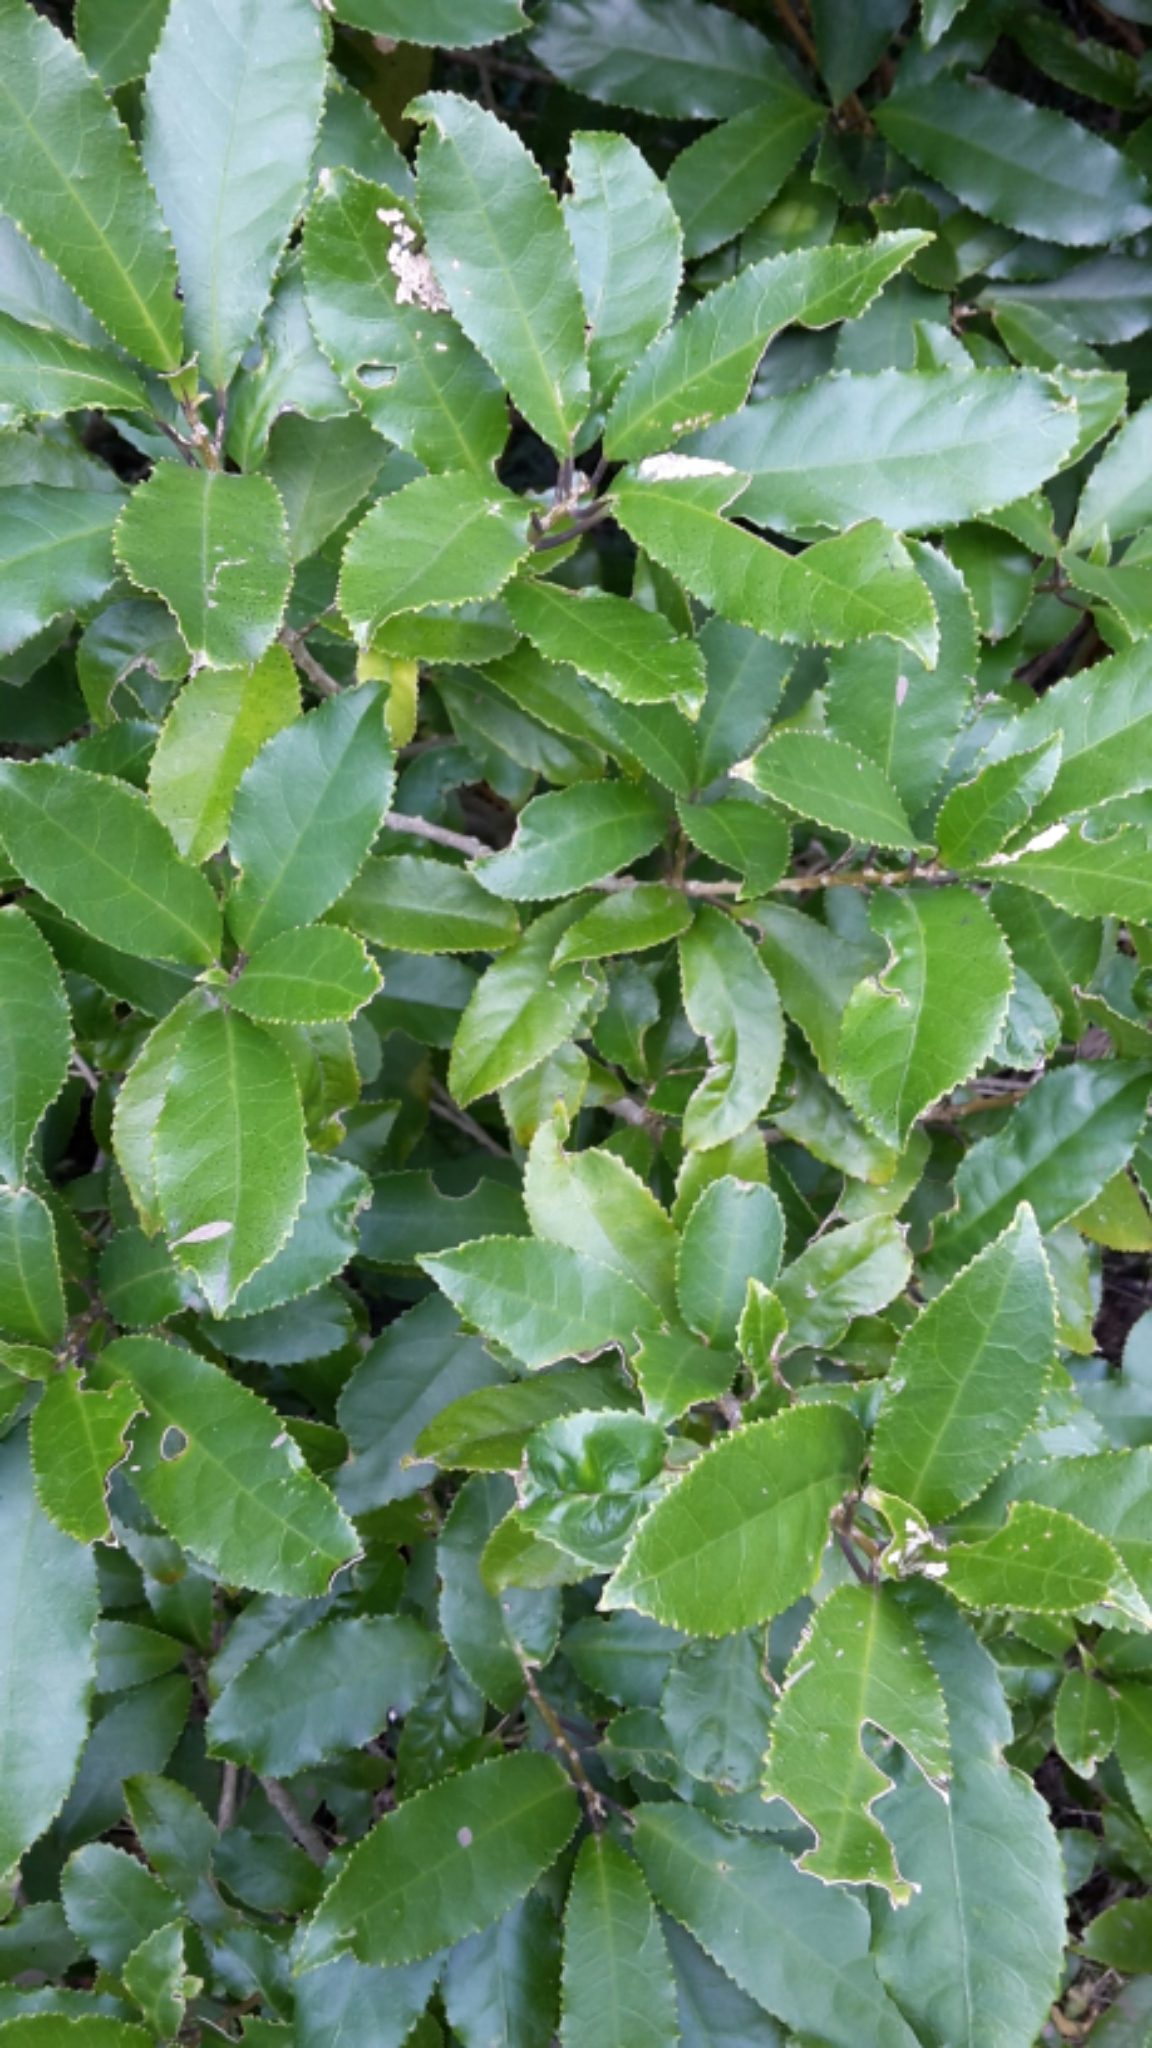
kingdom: Plantae
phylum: Tracheophyta
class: Magnoliopsida
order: Malpighiales
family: Violaceae
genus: Melicytus
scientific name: Melicytus ramiflorus
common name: Mahoe
